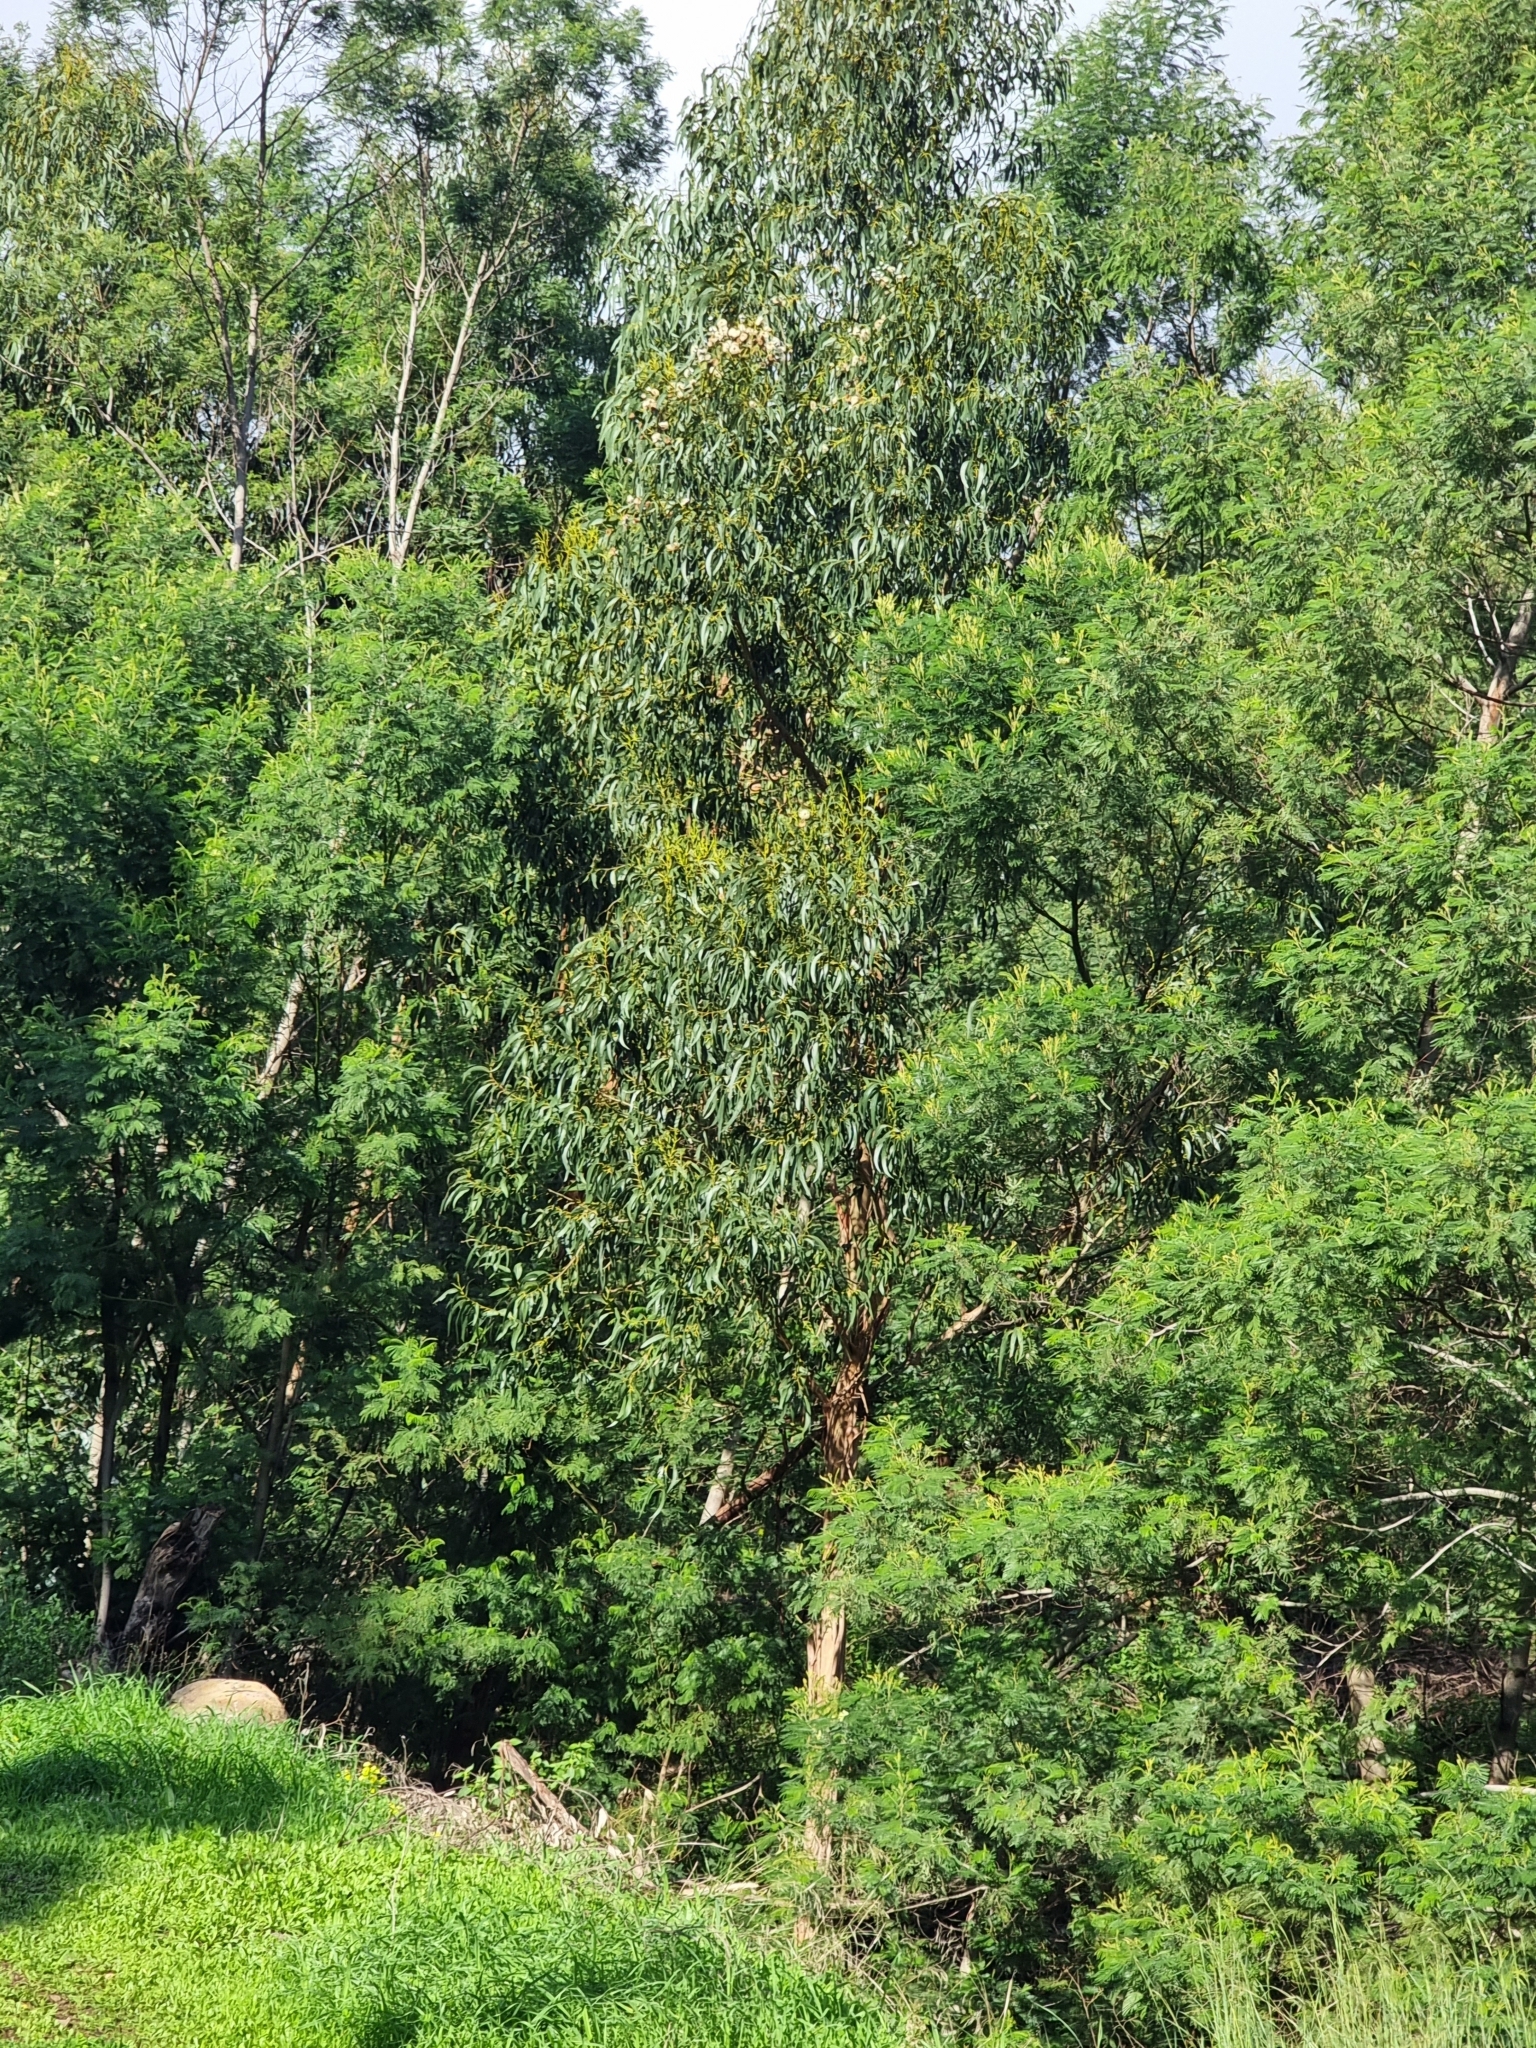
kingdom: Plantae
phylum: Tracheophyta
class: Magnoliopsida
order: Myrtales
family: Myrtaceae
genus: Eucalyptus
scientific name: Eucalyptus globulus
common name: Southern blue-gum
